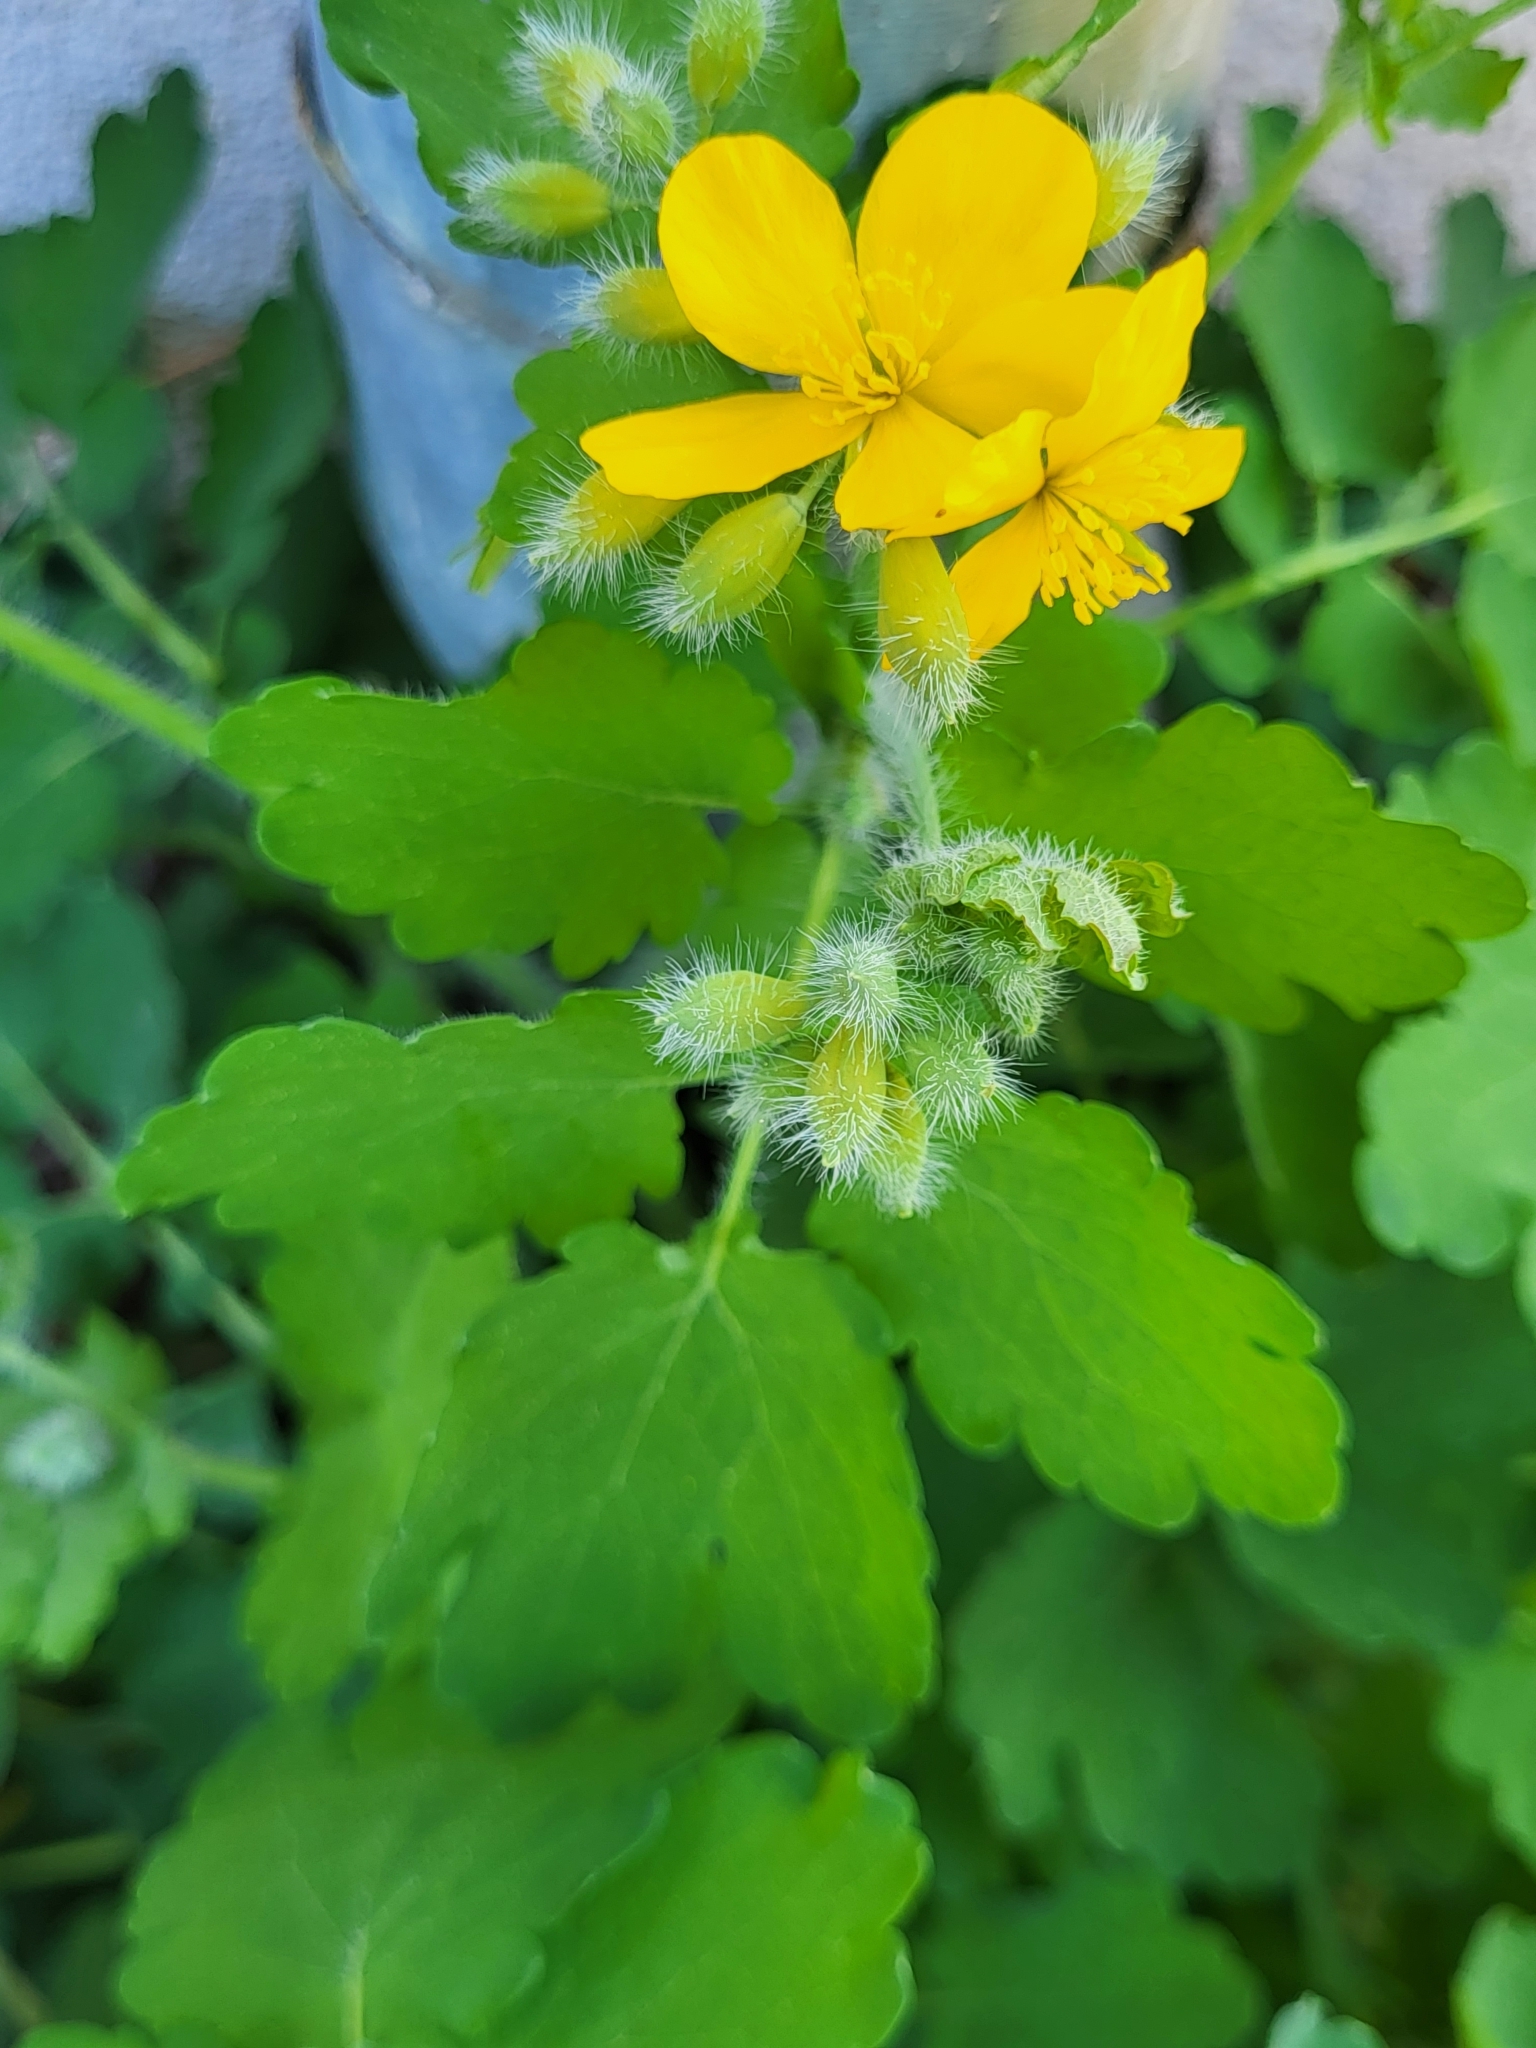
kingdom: Plantae
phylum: Tracheophyta
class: Magnoliopsida
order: Ranunculales
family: Papaveraceae
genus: Chelidonium
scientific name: Chelidonium majus
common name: Greater celandine
